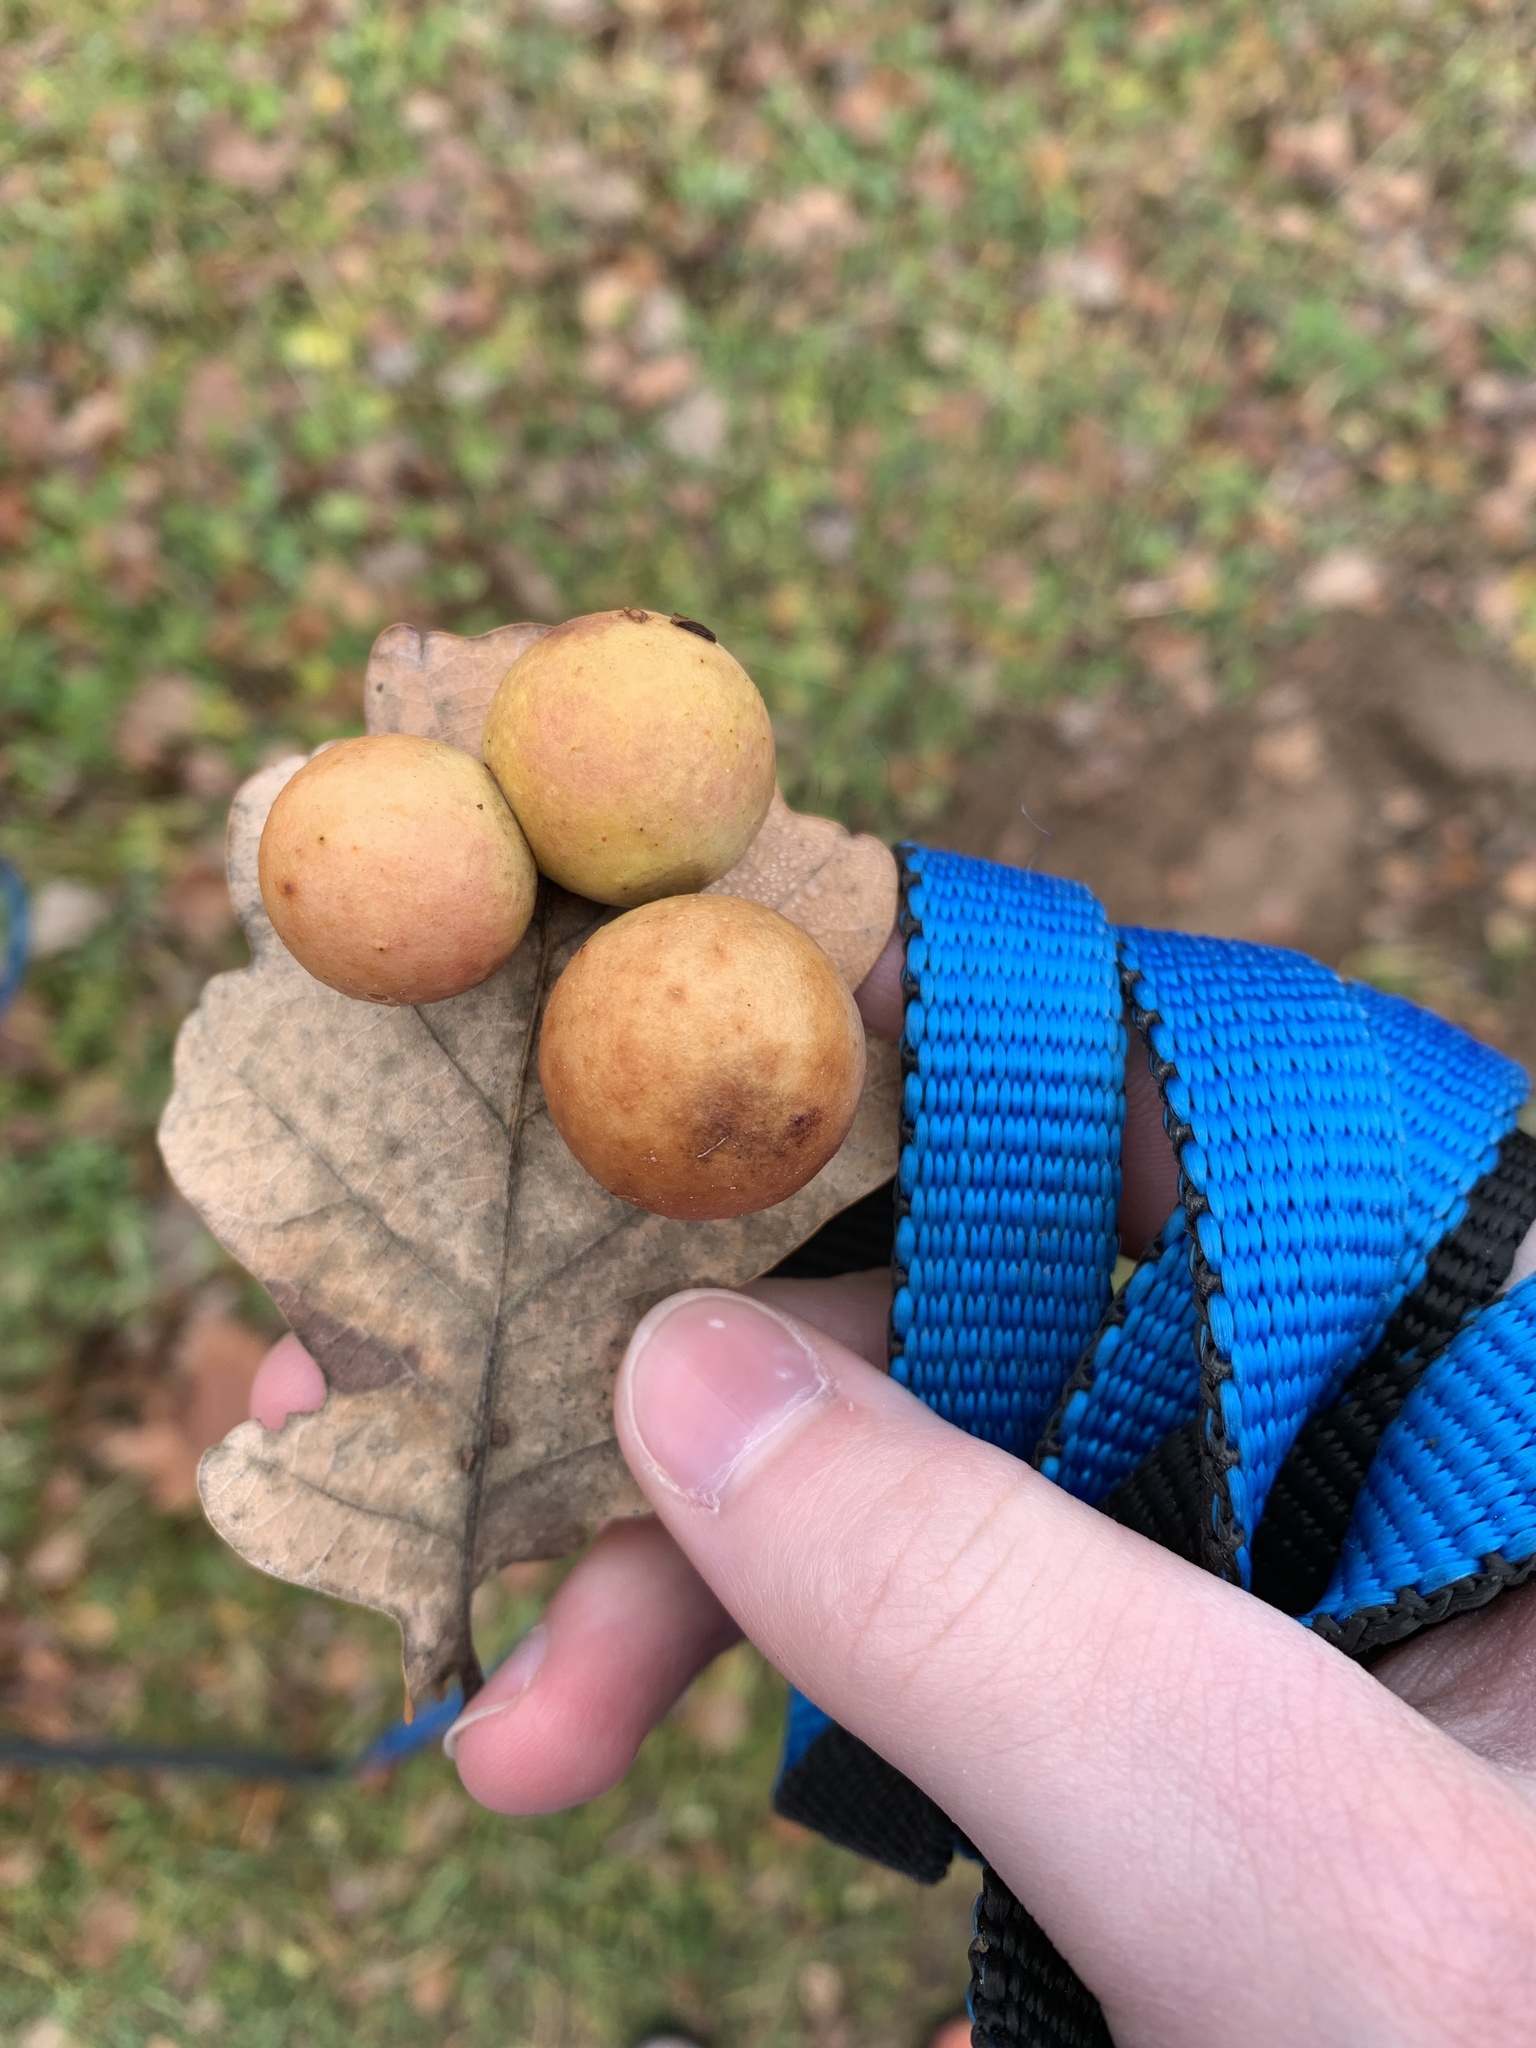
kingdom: Animalia
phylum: Arthropoda
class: Insecta
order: Hymenoptera
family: Cynipidae
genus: Cynips
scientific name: Cynips quercusfolii
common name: Cherry gall
